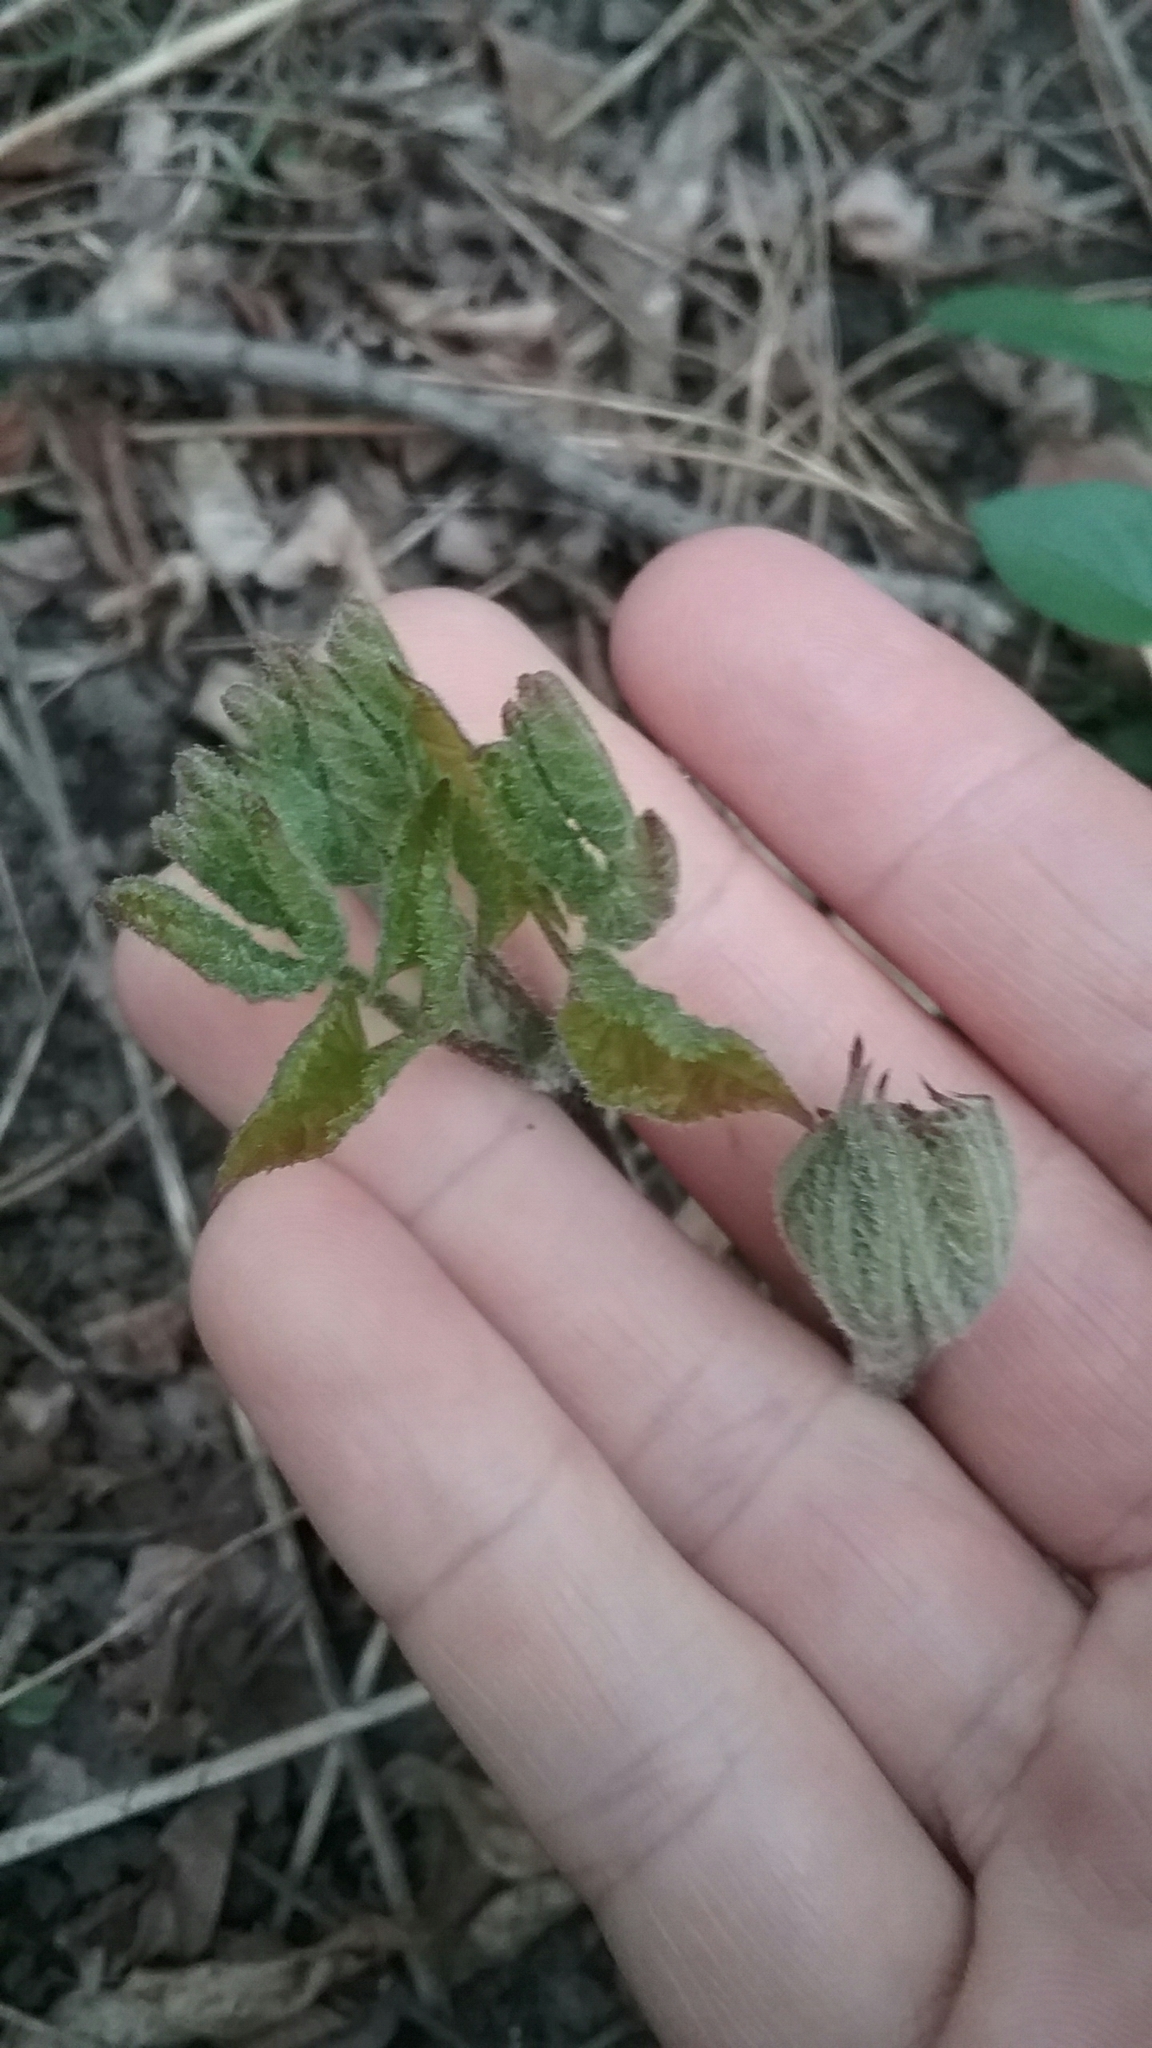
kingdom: Plantae
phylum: Tracheophyta
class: Magnoliopsida
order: Apiales
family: Araliaceae
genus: Aralia
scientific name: Aralia racemosa
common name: American-spikenard
